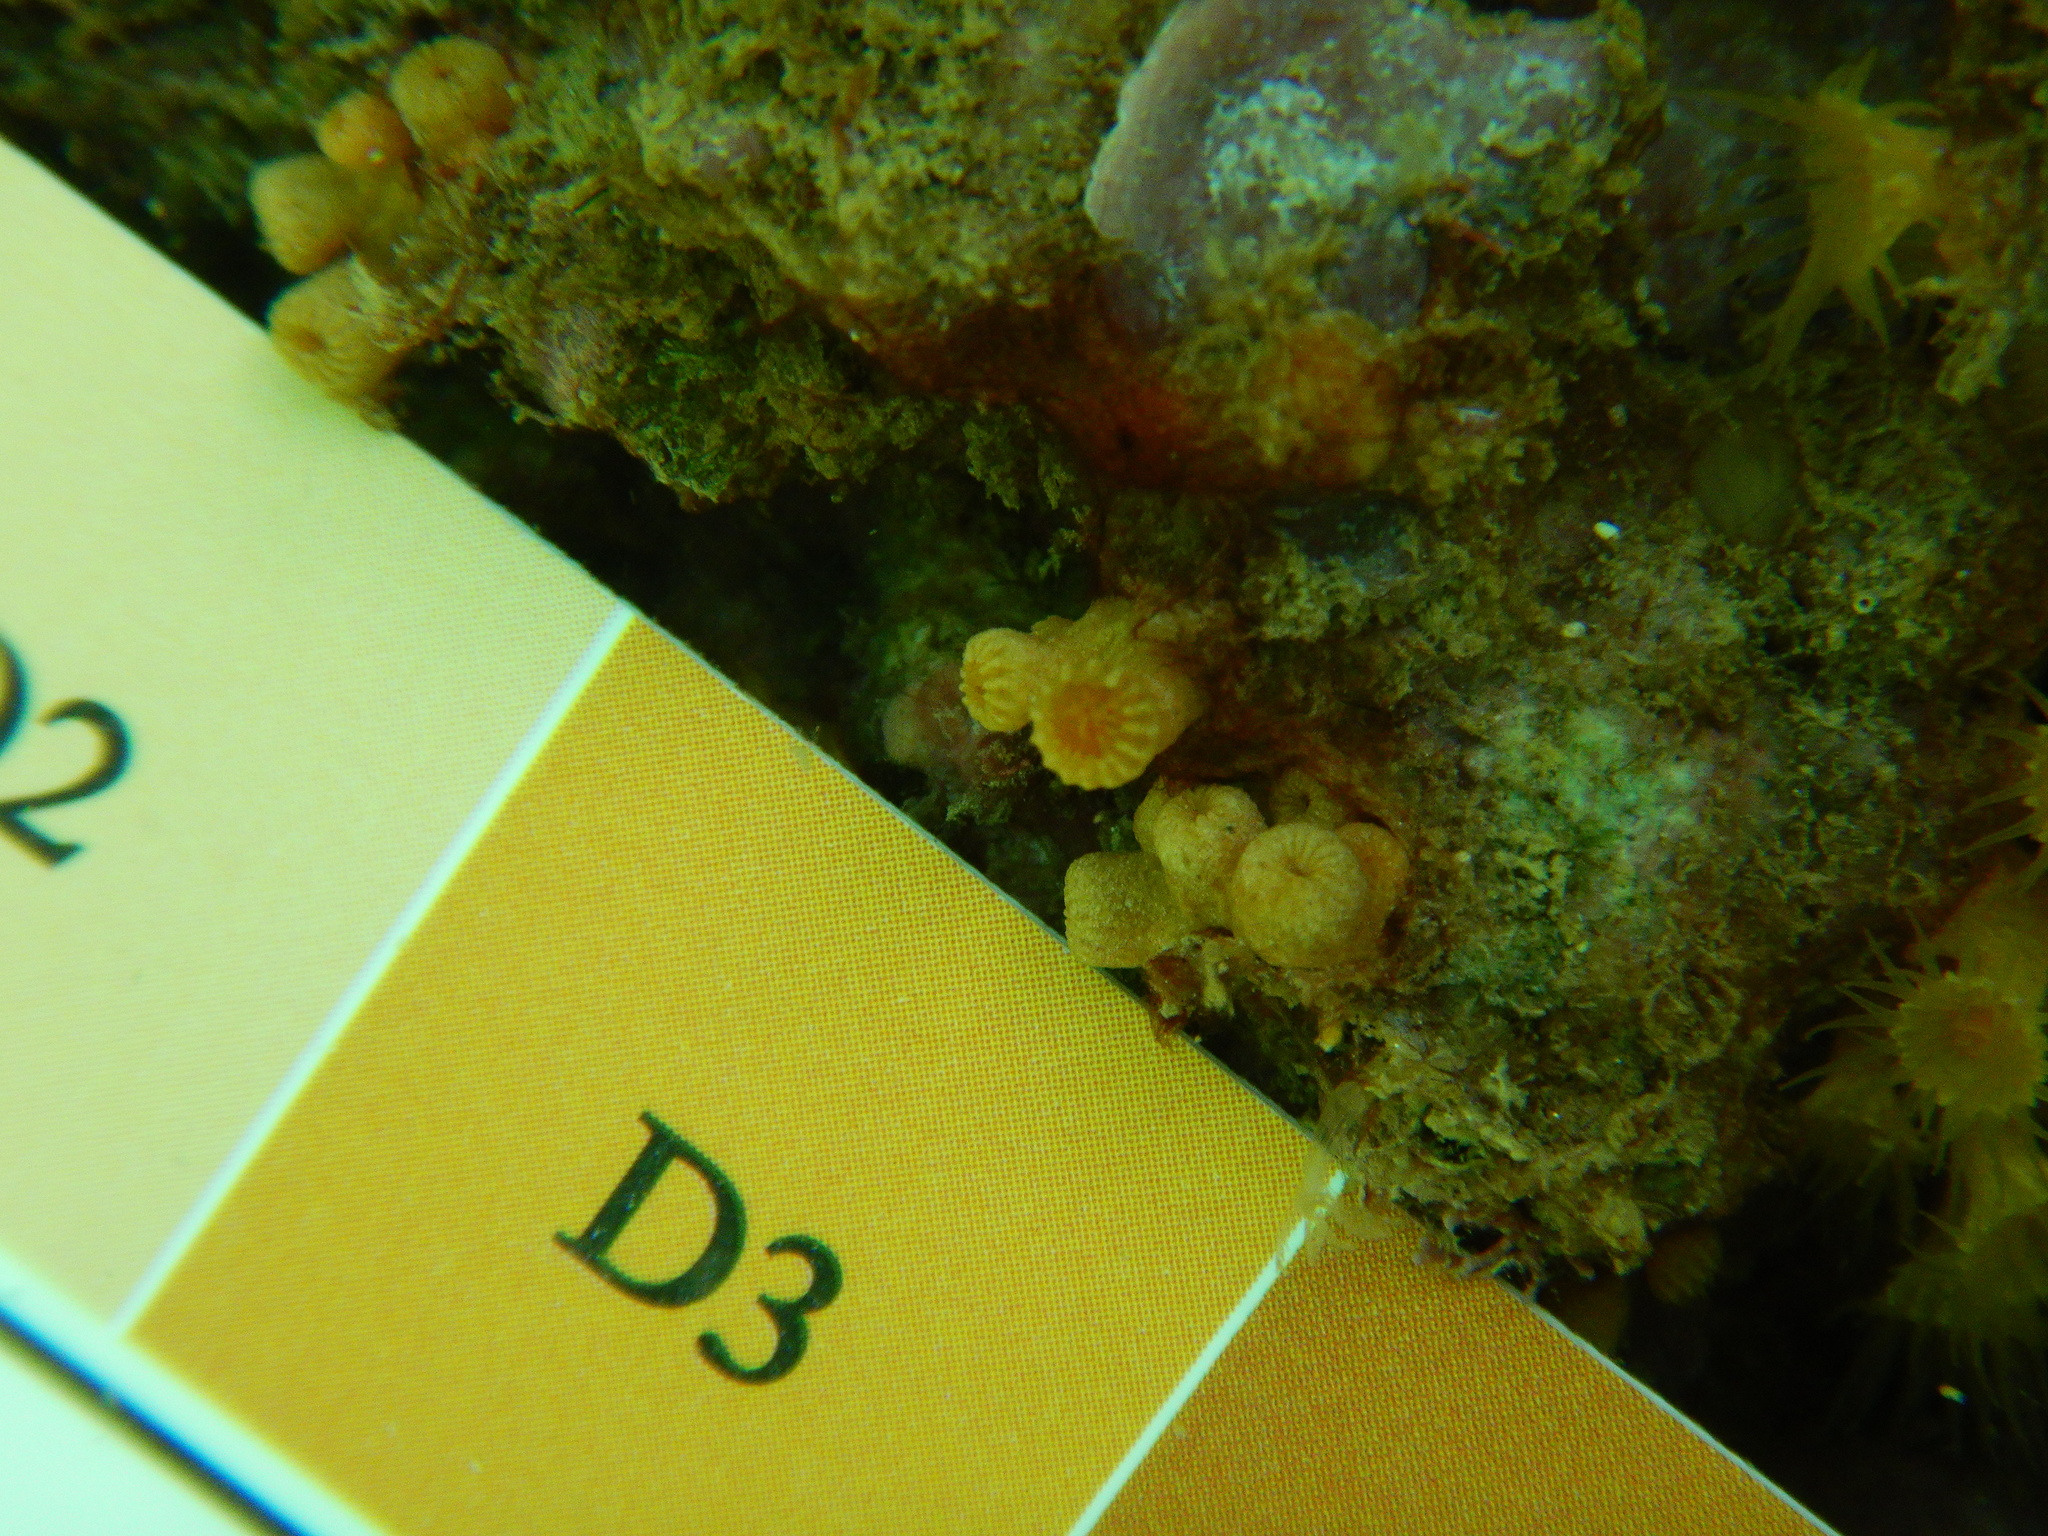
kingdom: Animalia
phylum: Cnidaria
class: Anthozoa
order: Zoantharia
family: Parazoanthidae
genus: Parazoanthus
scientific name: Parazoanthus axinellae
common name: Yellow cluster anemone
